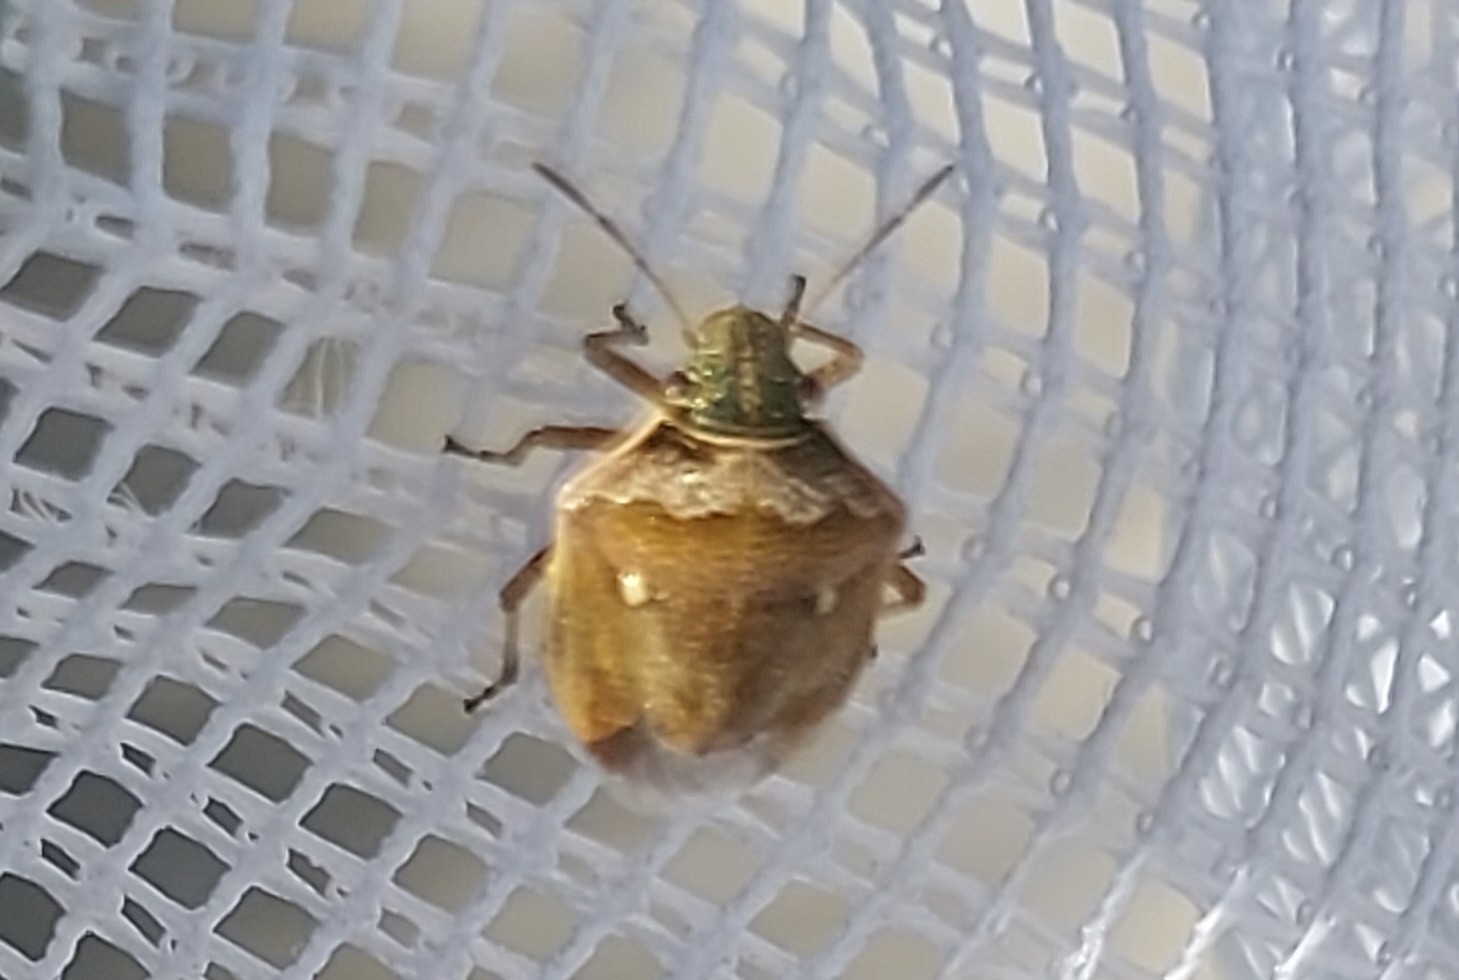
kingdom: Animalia
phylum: Arthropoda
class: Insecta
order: Hemiptera
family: Pentatomidae
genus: Eysarcoris
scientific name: Eysarcoris ventralis
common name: White-spotted stink bug
